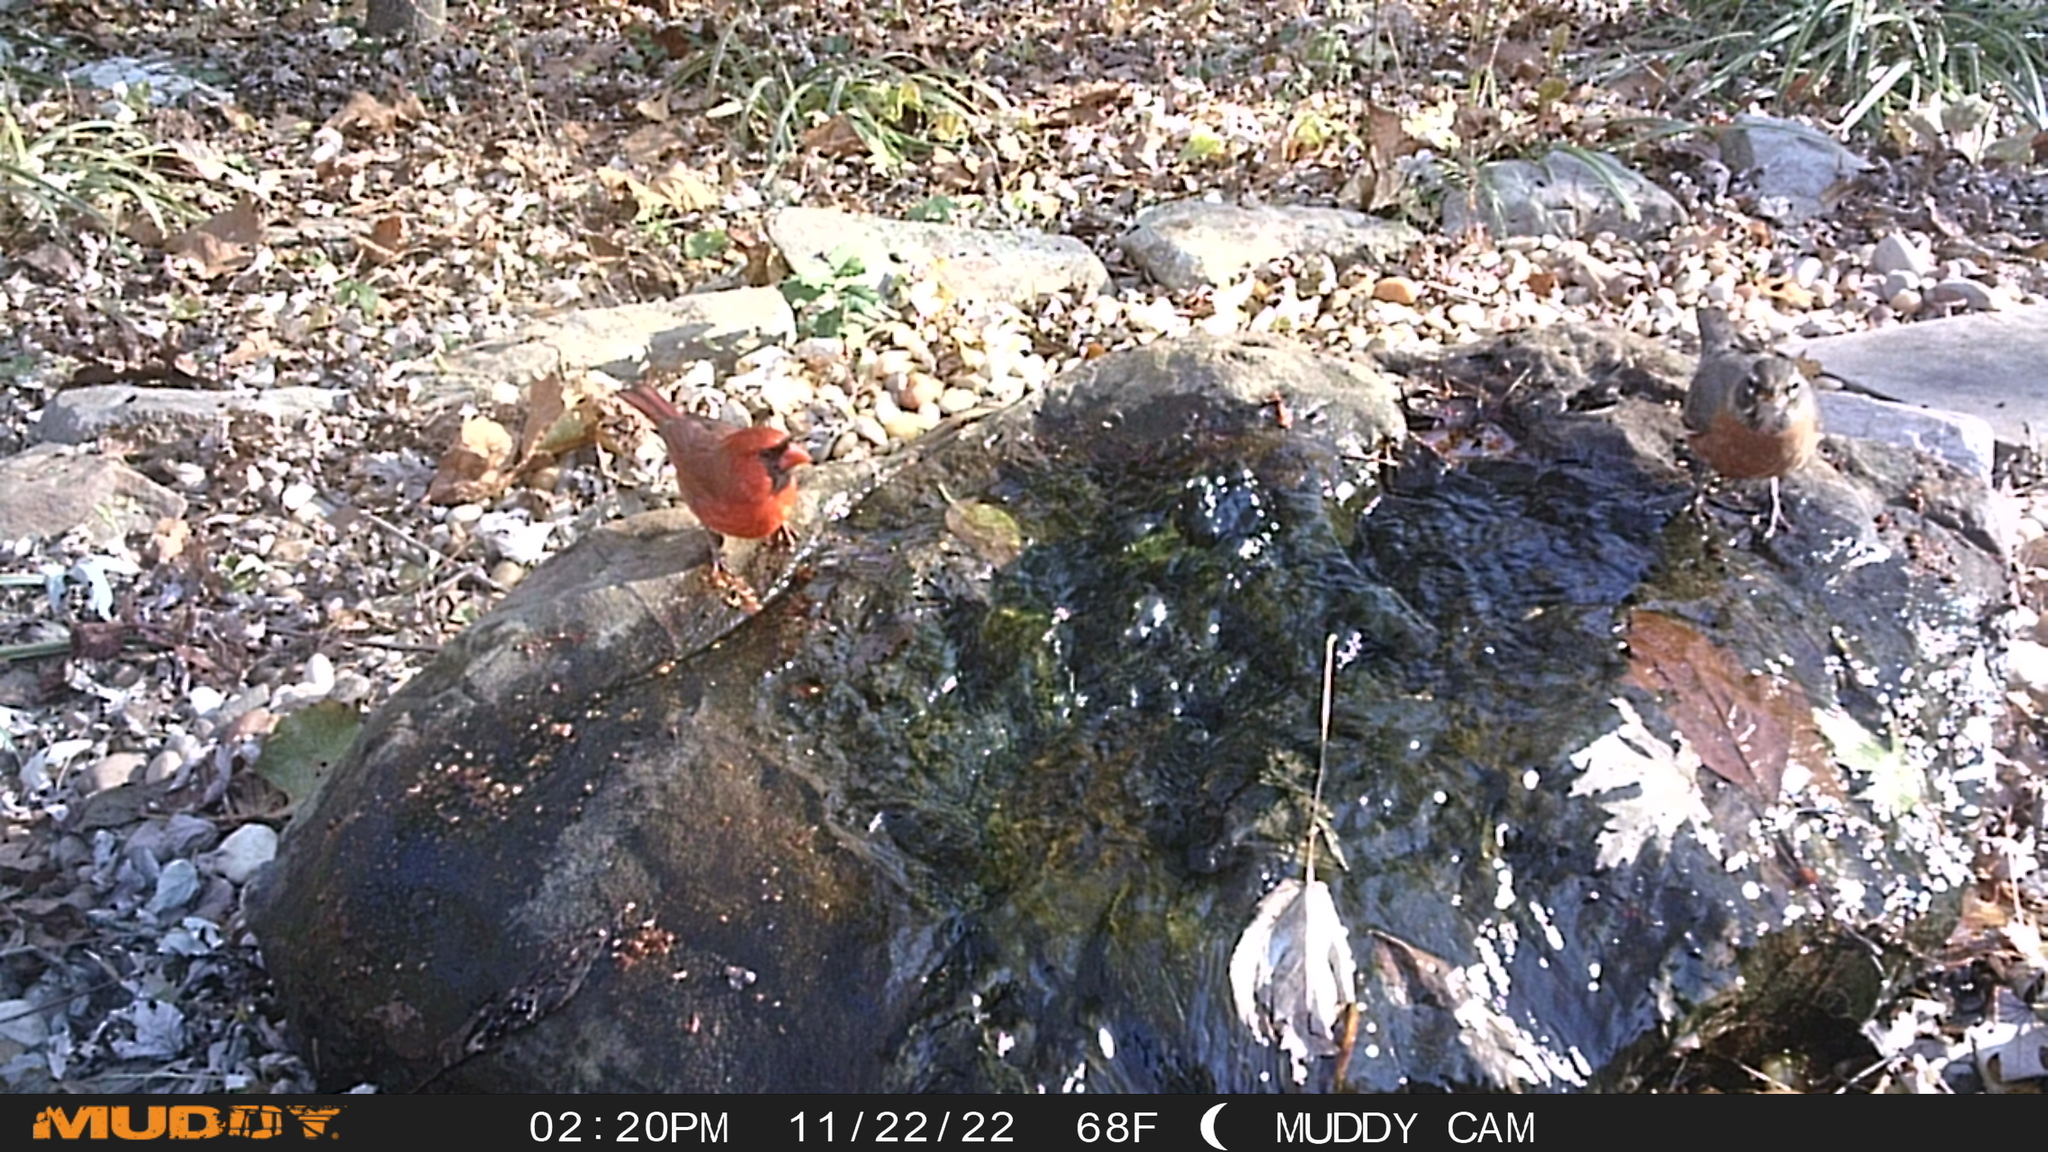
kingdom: Animalia
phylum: Chordata
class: Aves
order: Passeriformes
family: Turdidae
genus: Turdus
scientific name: Turdus migratorius
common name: American robin
